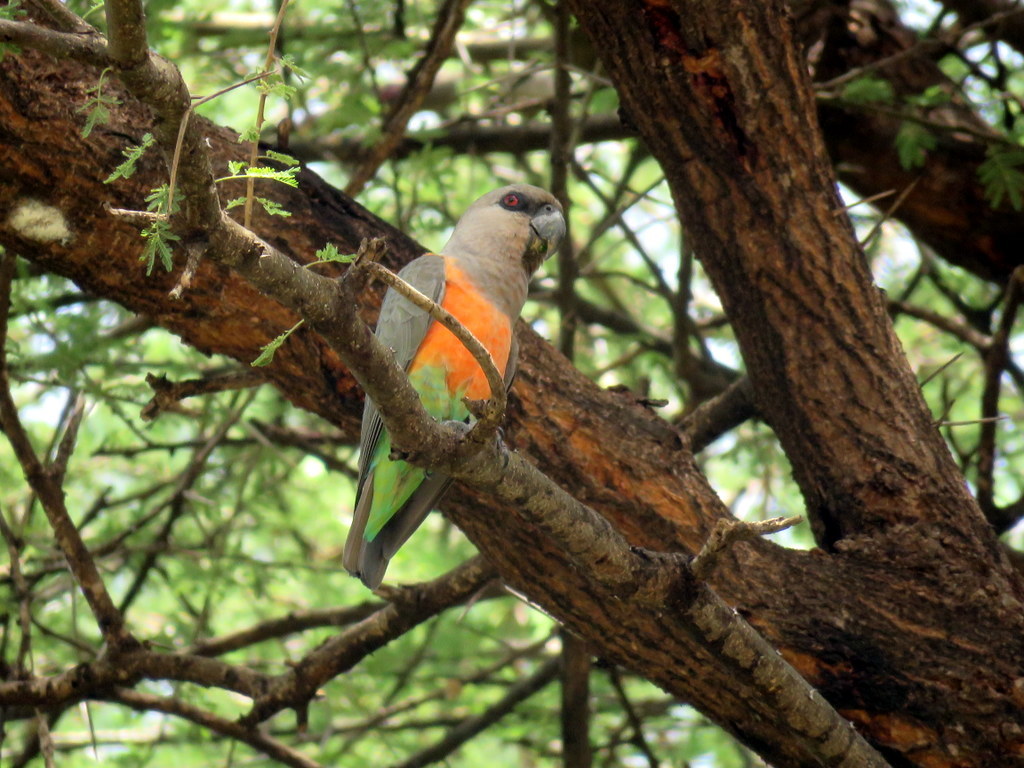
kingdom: Animalia
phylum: Chordata
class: Aves
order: Psittaciformes
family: Psittacidae
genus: Poicephalus
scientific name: Poicephalus rufiventris
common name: Red-bellied parrot
